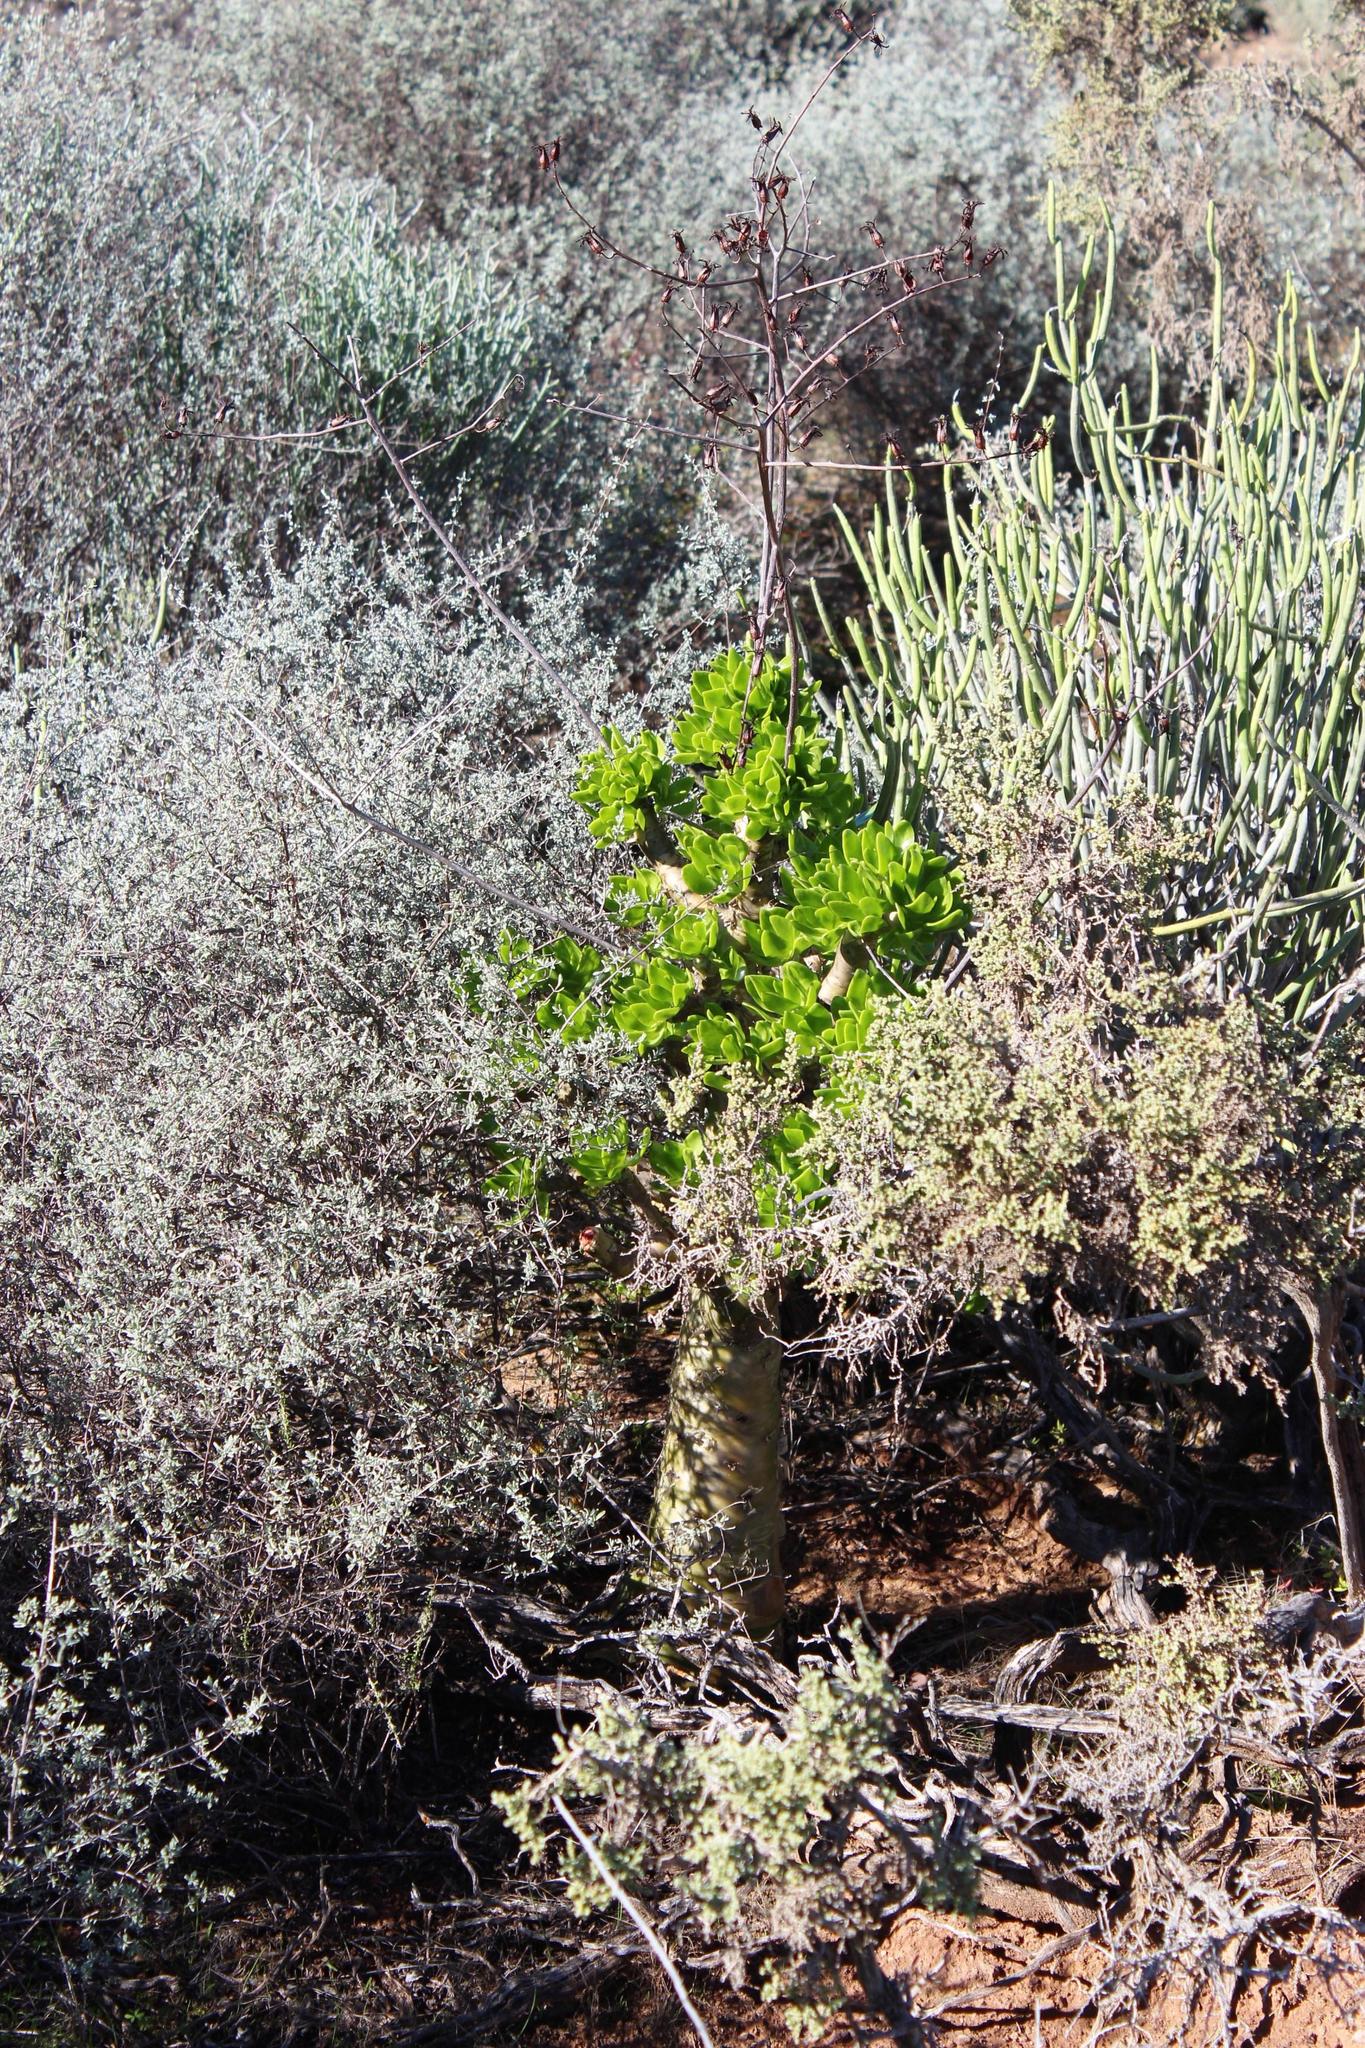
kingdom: Plantae
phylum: Tracheophyta
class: Magnoliopsida
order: Saxifragales
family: Crassulaceae
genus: Tylecodon
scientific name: Tylecodon paniculatus
